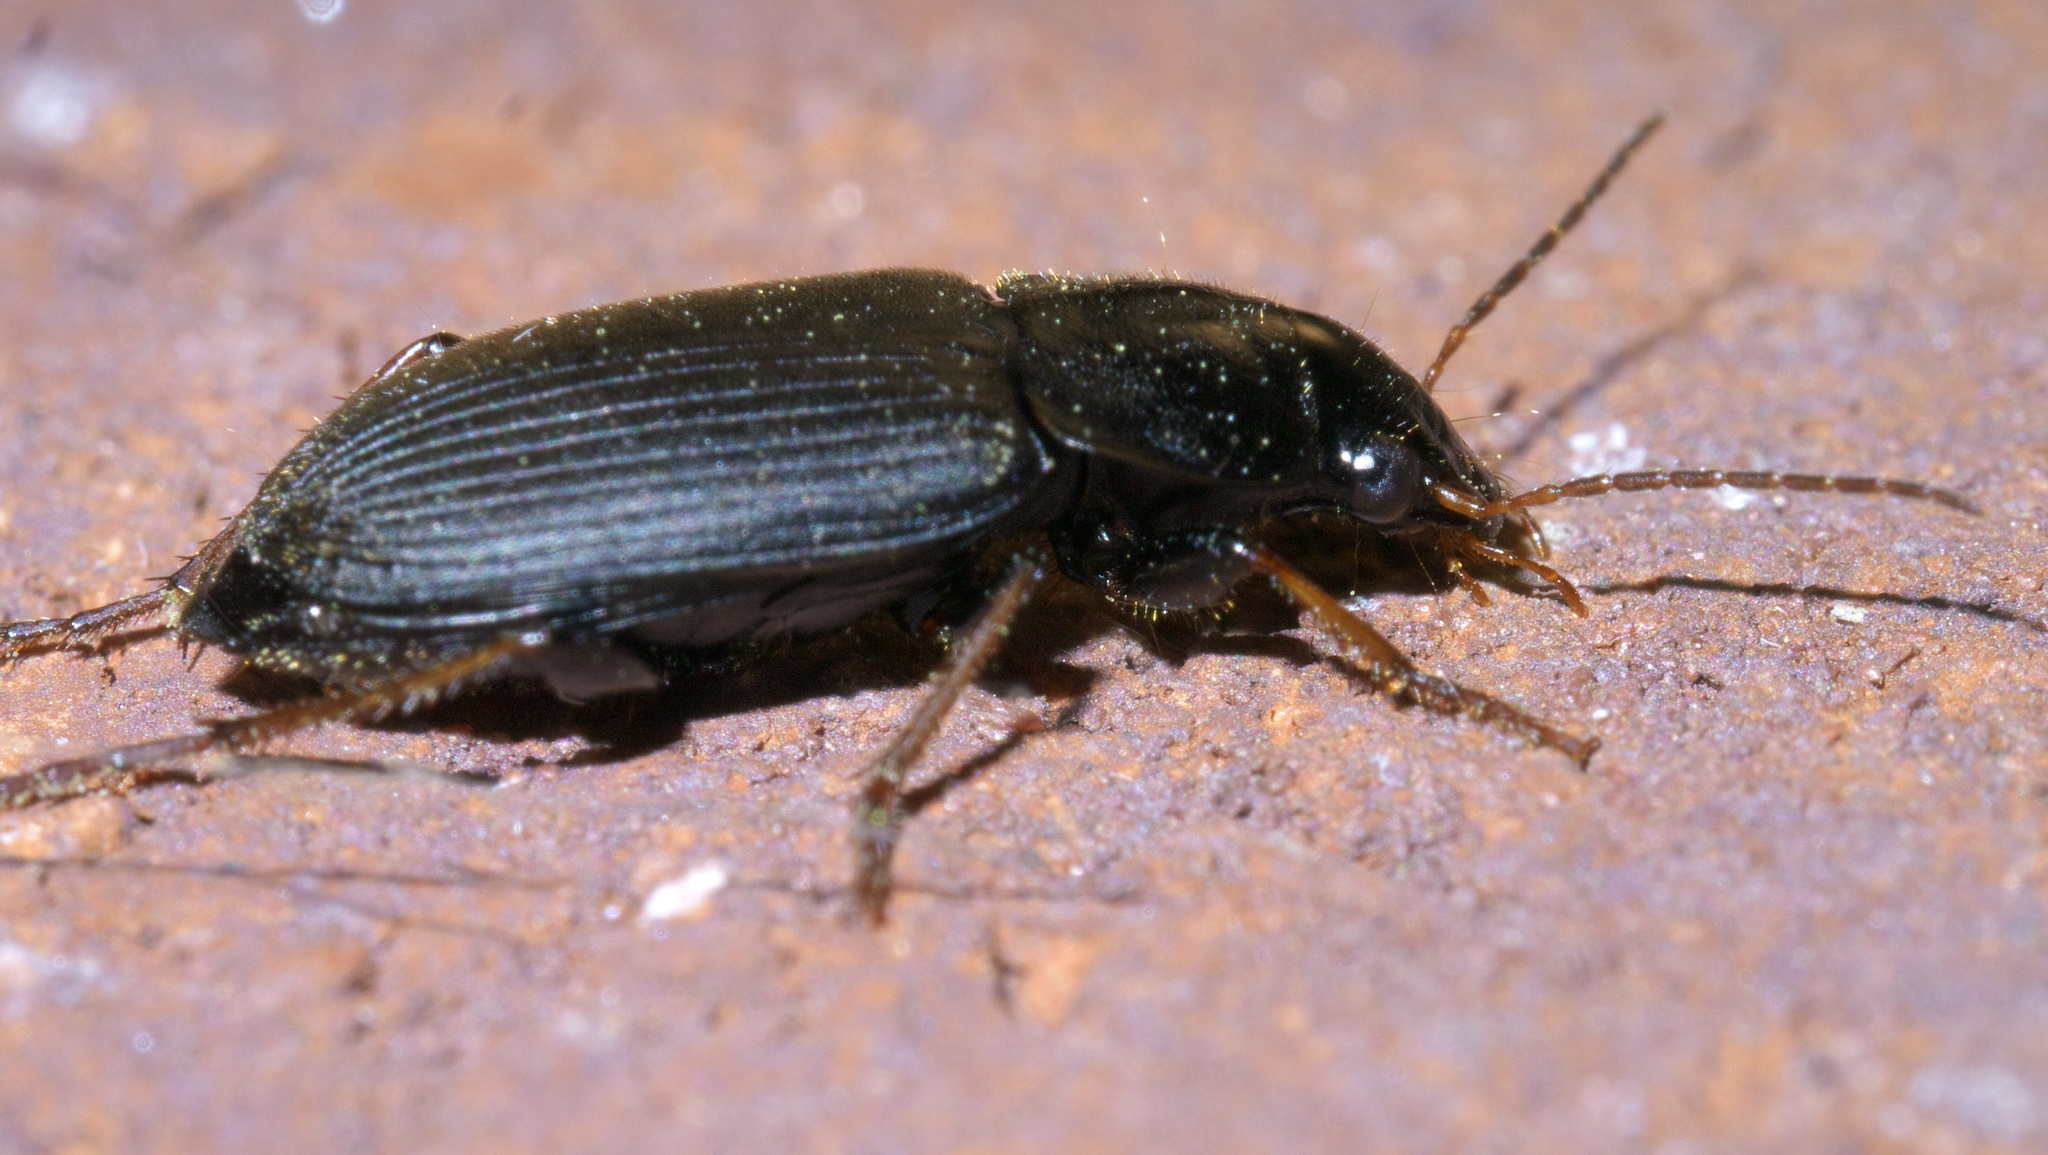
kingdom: Animalia
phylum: Arthropoda
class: Insecta
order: Coleoptera
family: Carabidae
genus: Amphasia
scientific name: Amphasia sericea
